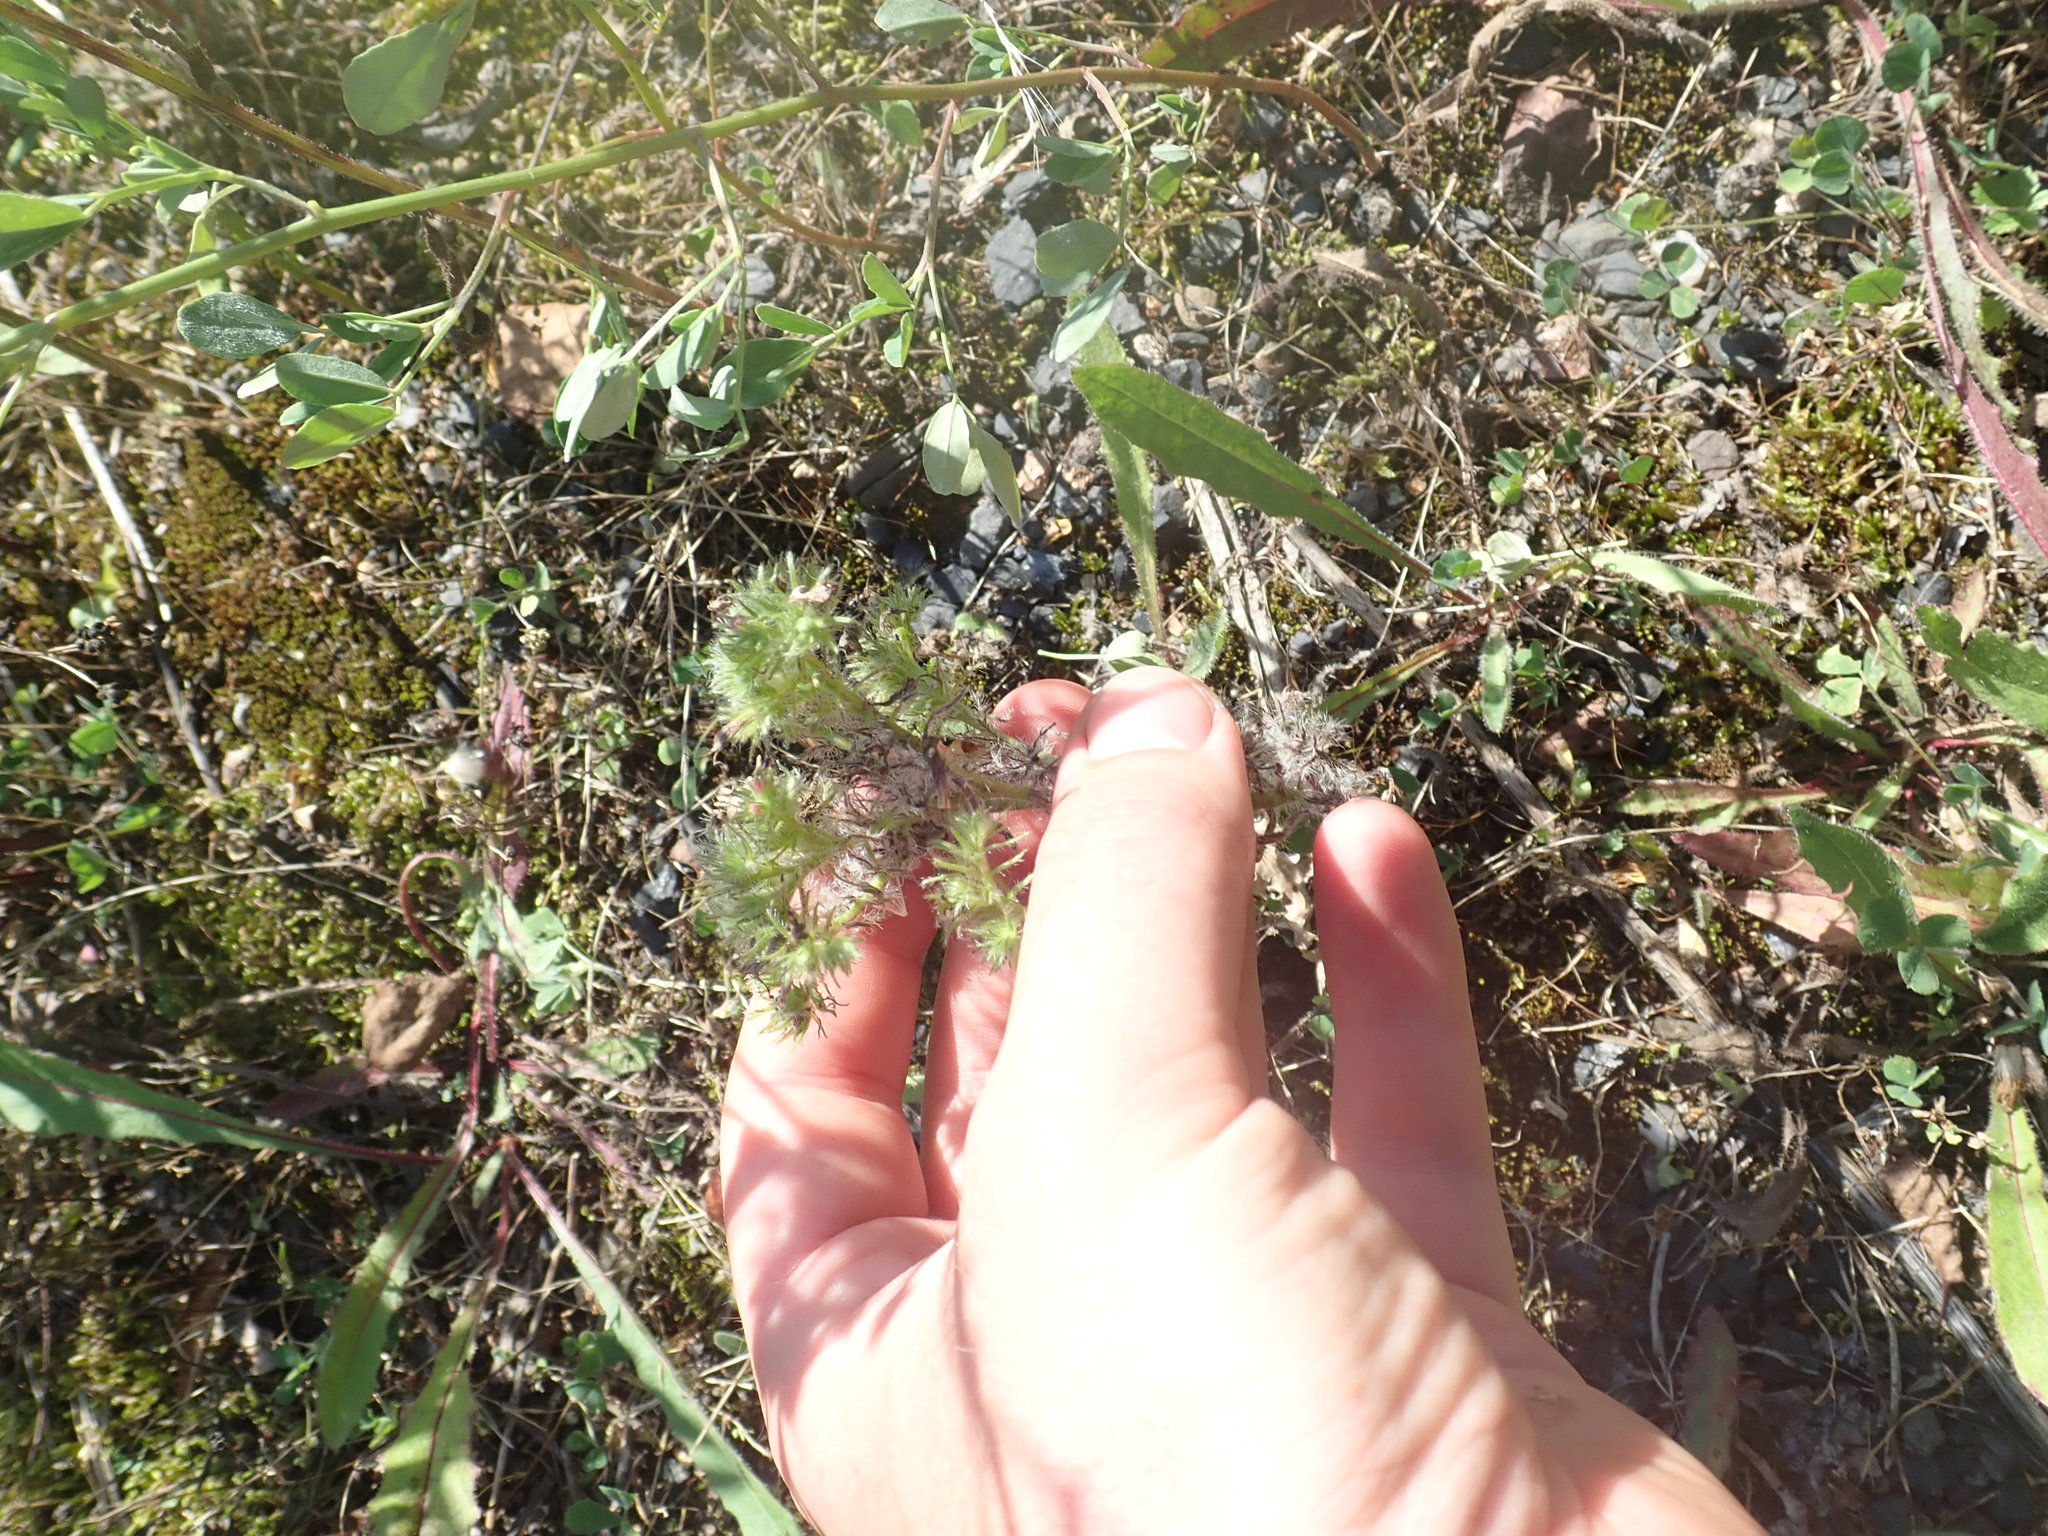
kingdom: Plantae
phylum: Tracheophyta
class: Magnoliopsida
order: Boraginales
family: Boraginaceae
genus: Echium
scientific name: Echium vulgare
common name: Common viper's bugloss
